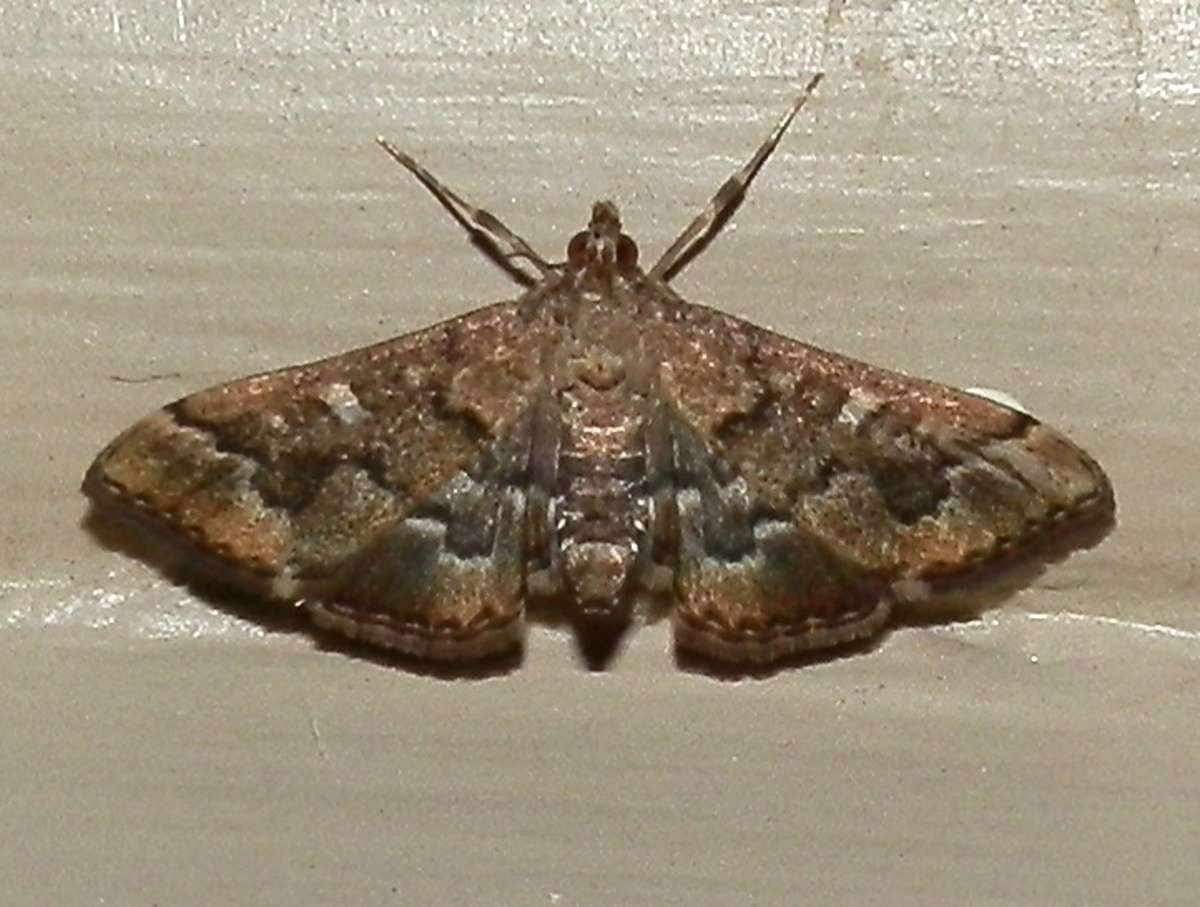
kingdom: Animalia
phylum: Arthropoda
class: Insecta
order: Lepidoptera
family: Crambidae
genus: Nacoleia
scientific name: Nacoleia rhoeoalis
